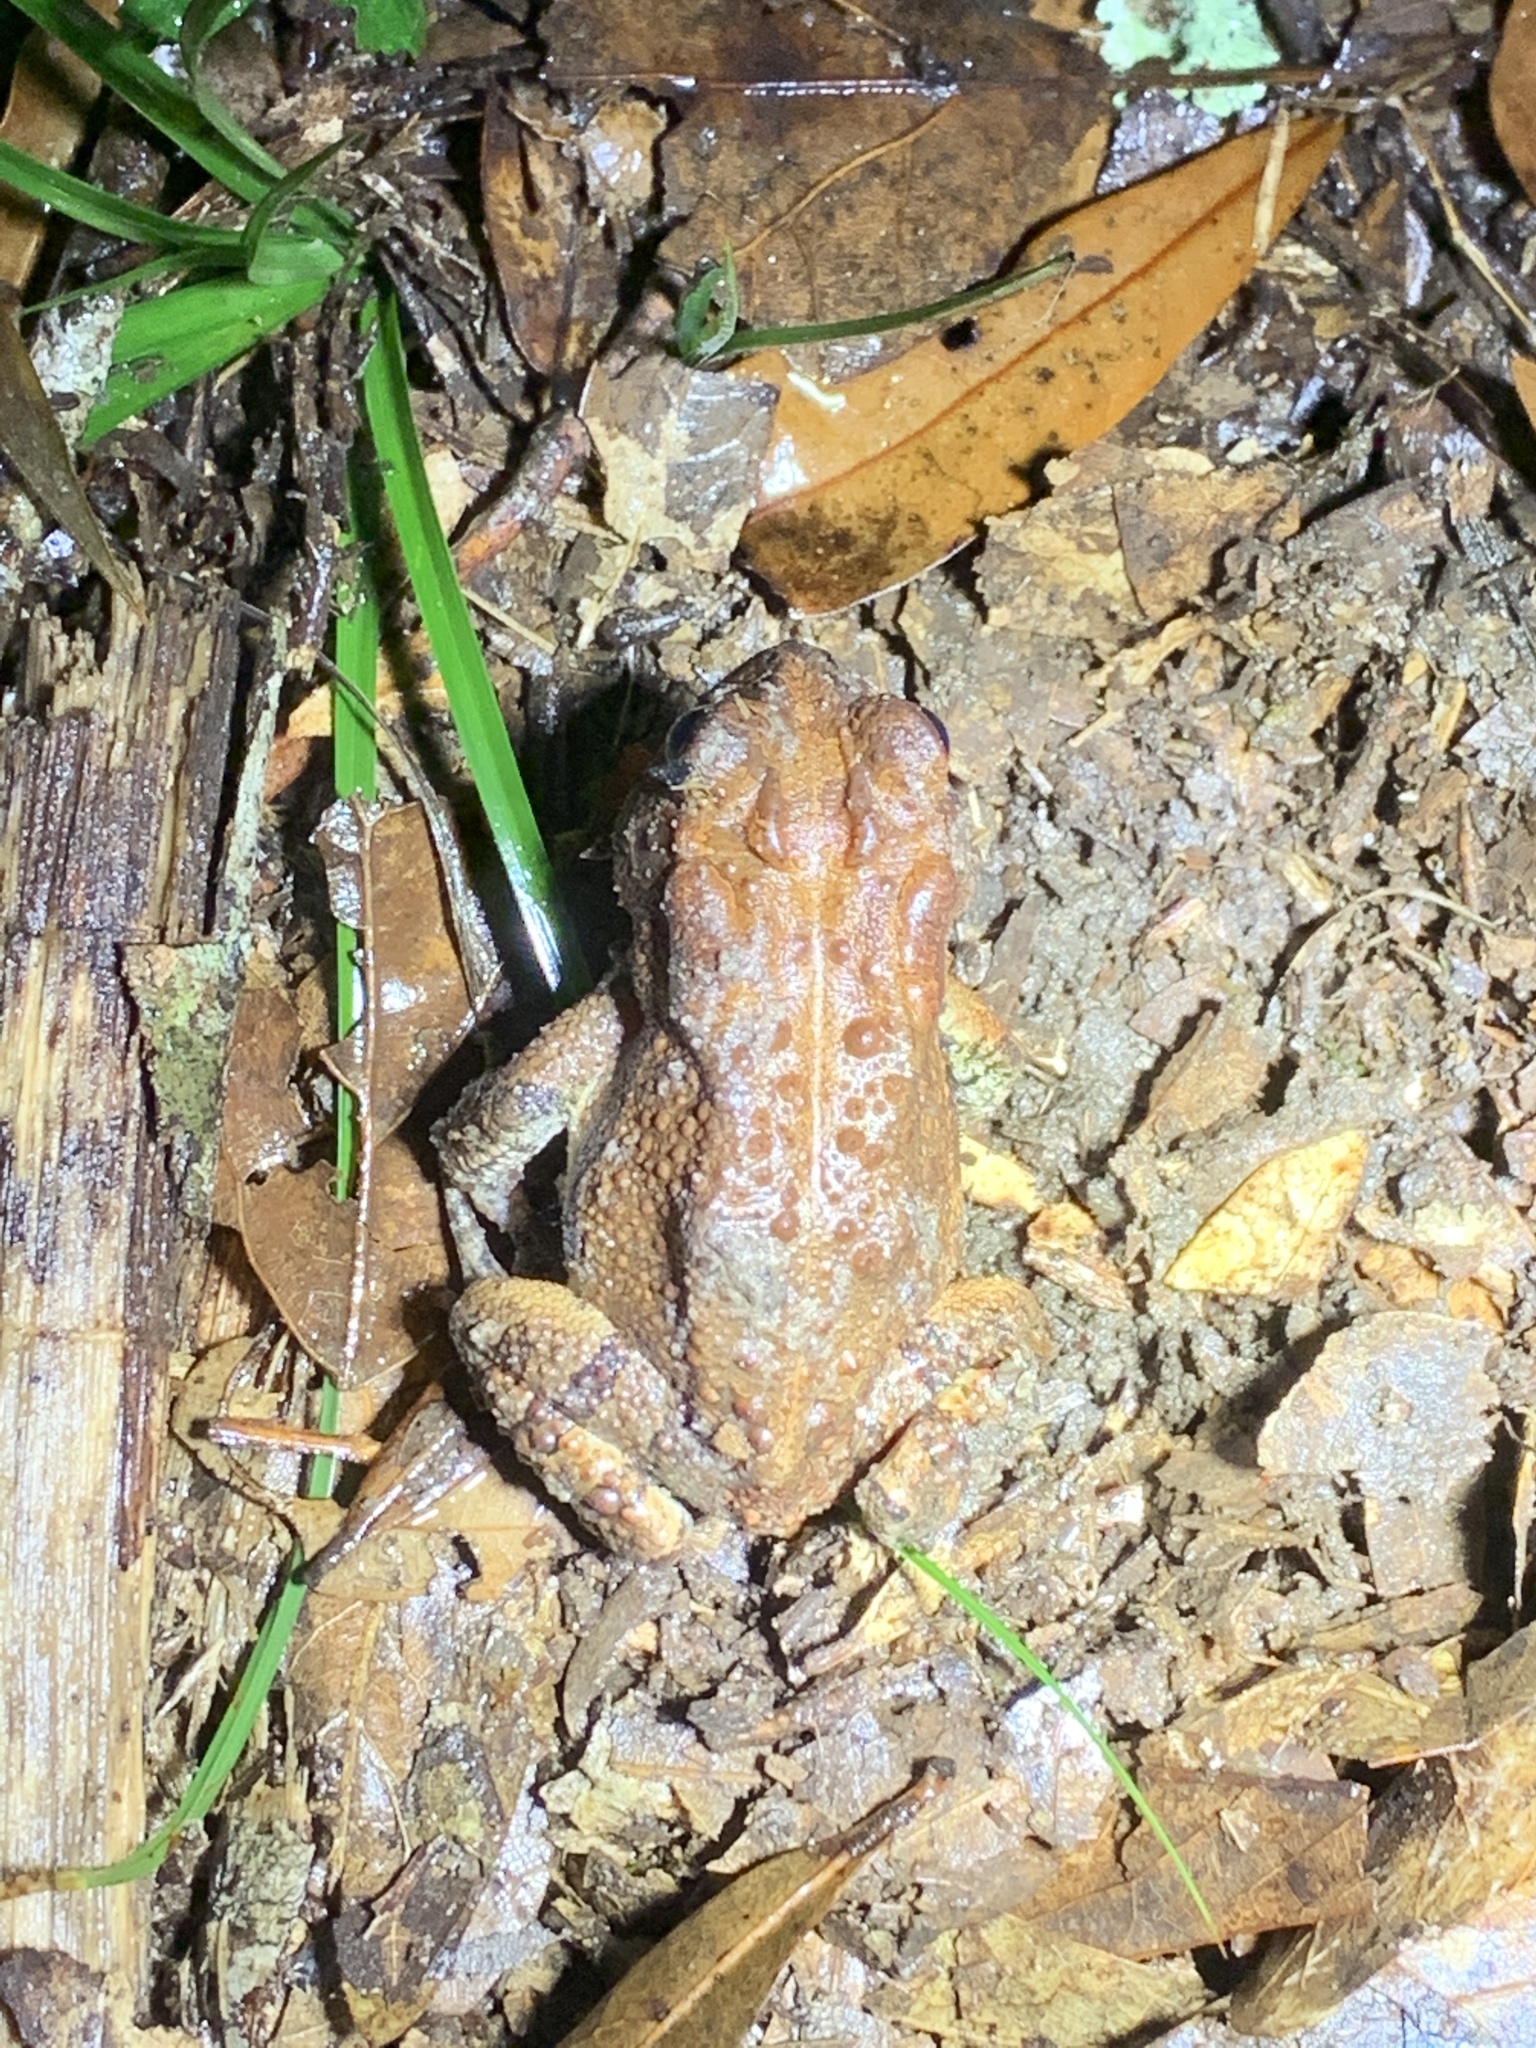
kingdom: Animalia
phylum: Chordata
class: Amphibia
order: Anura
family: Bufonidae
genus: Anaxyrus
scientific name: Anaxyrus terrestris
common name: Southern toad
